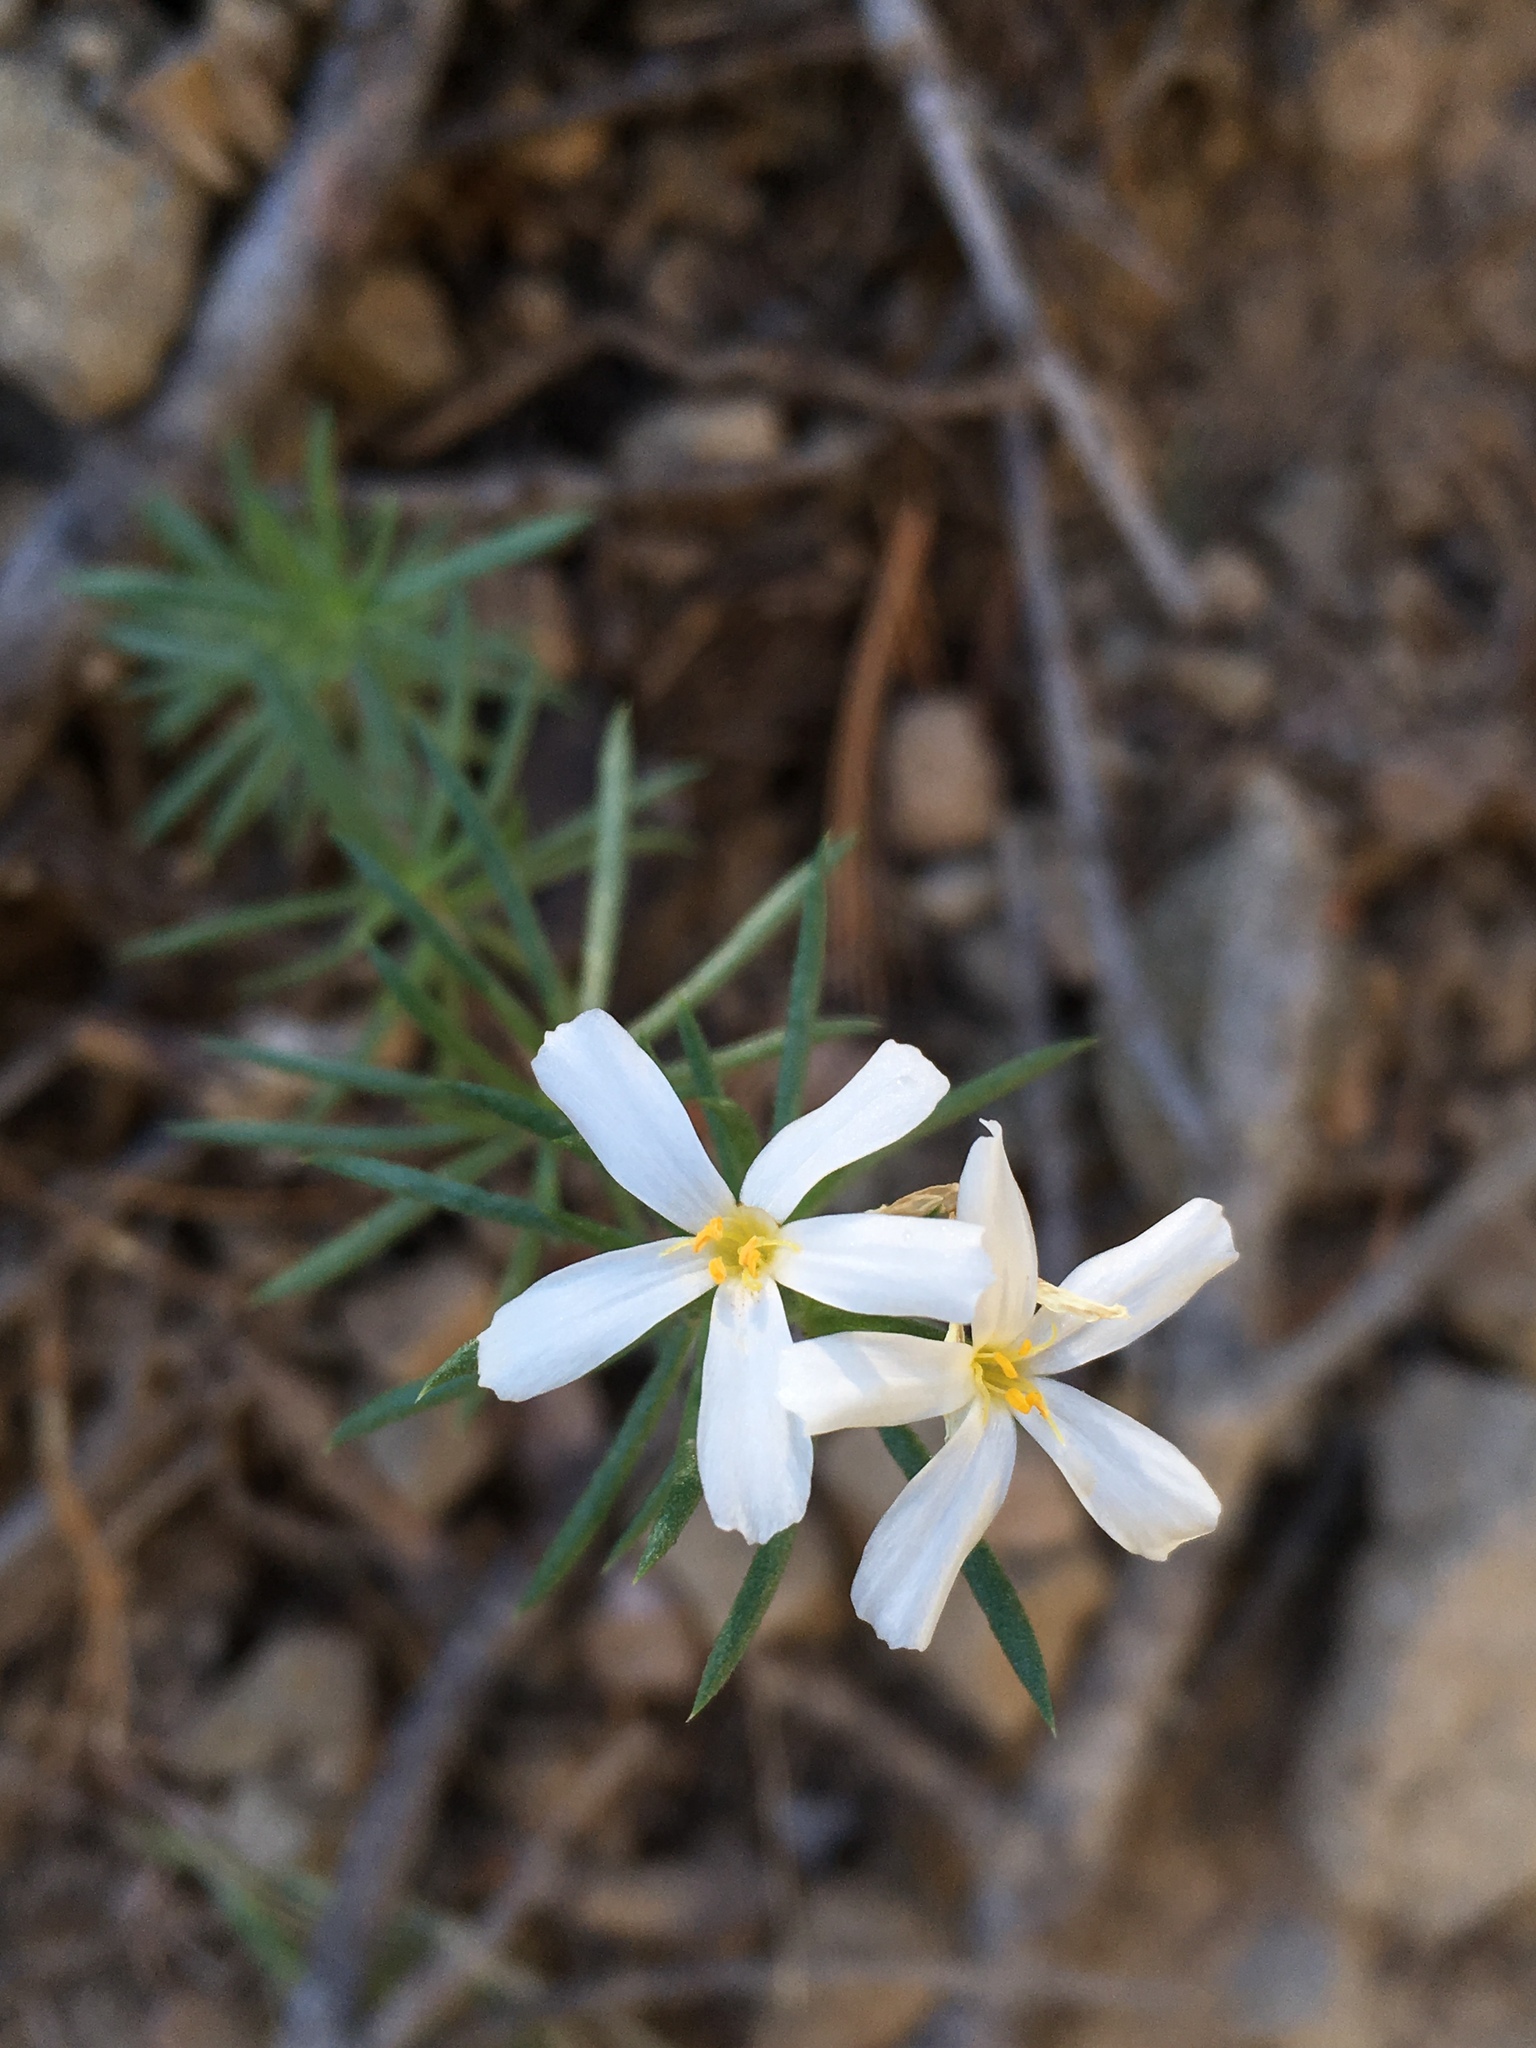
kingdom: Plantae
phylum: Tracheophyta
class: Magnoliopsida
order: Ericales
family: Polemoniaceae
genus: Leptosiphon
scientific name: Leptosiphon nuttallii
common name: Nuttall's linanthus
